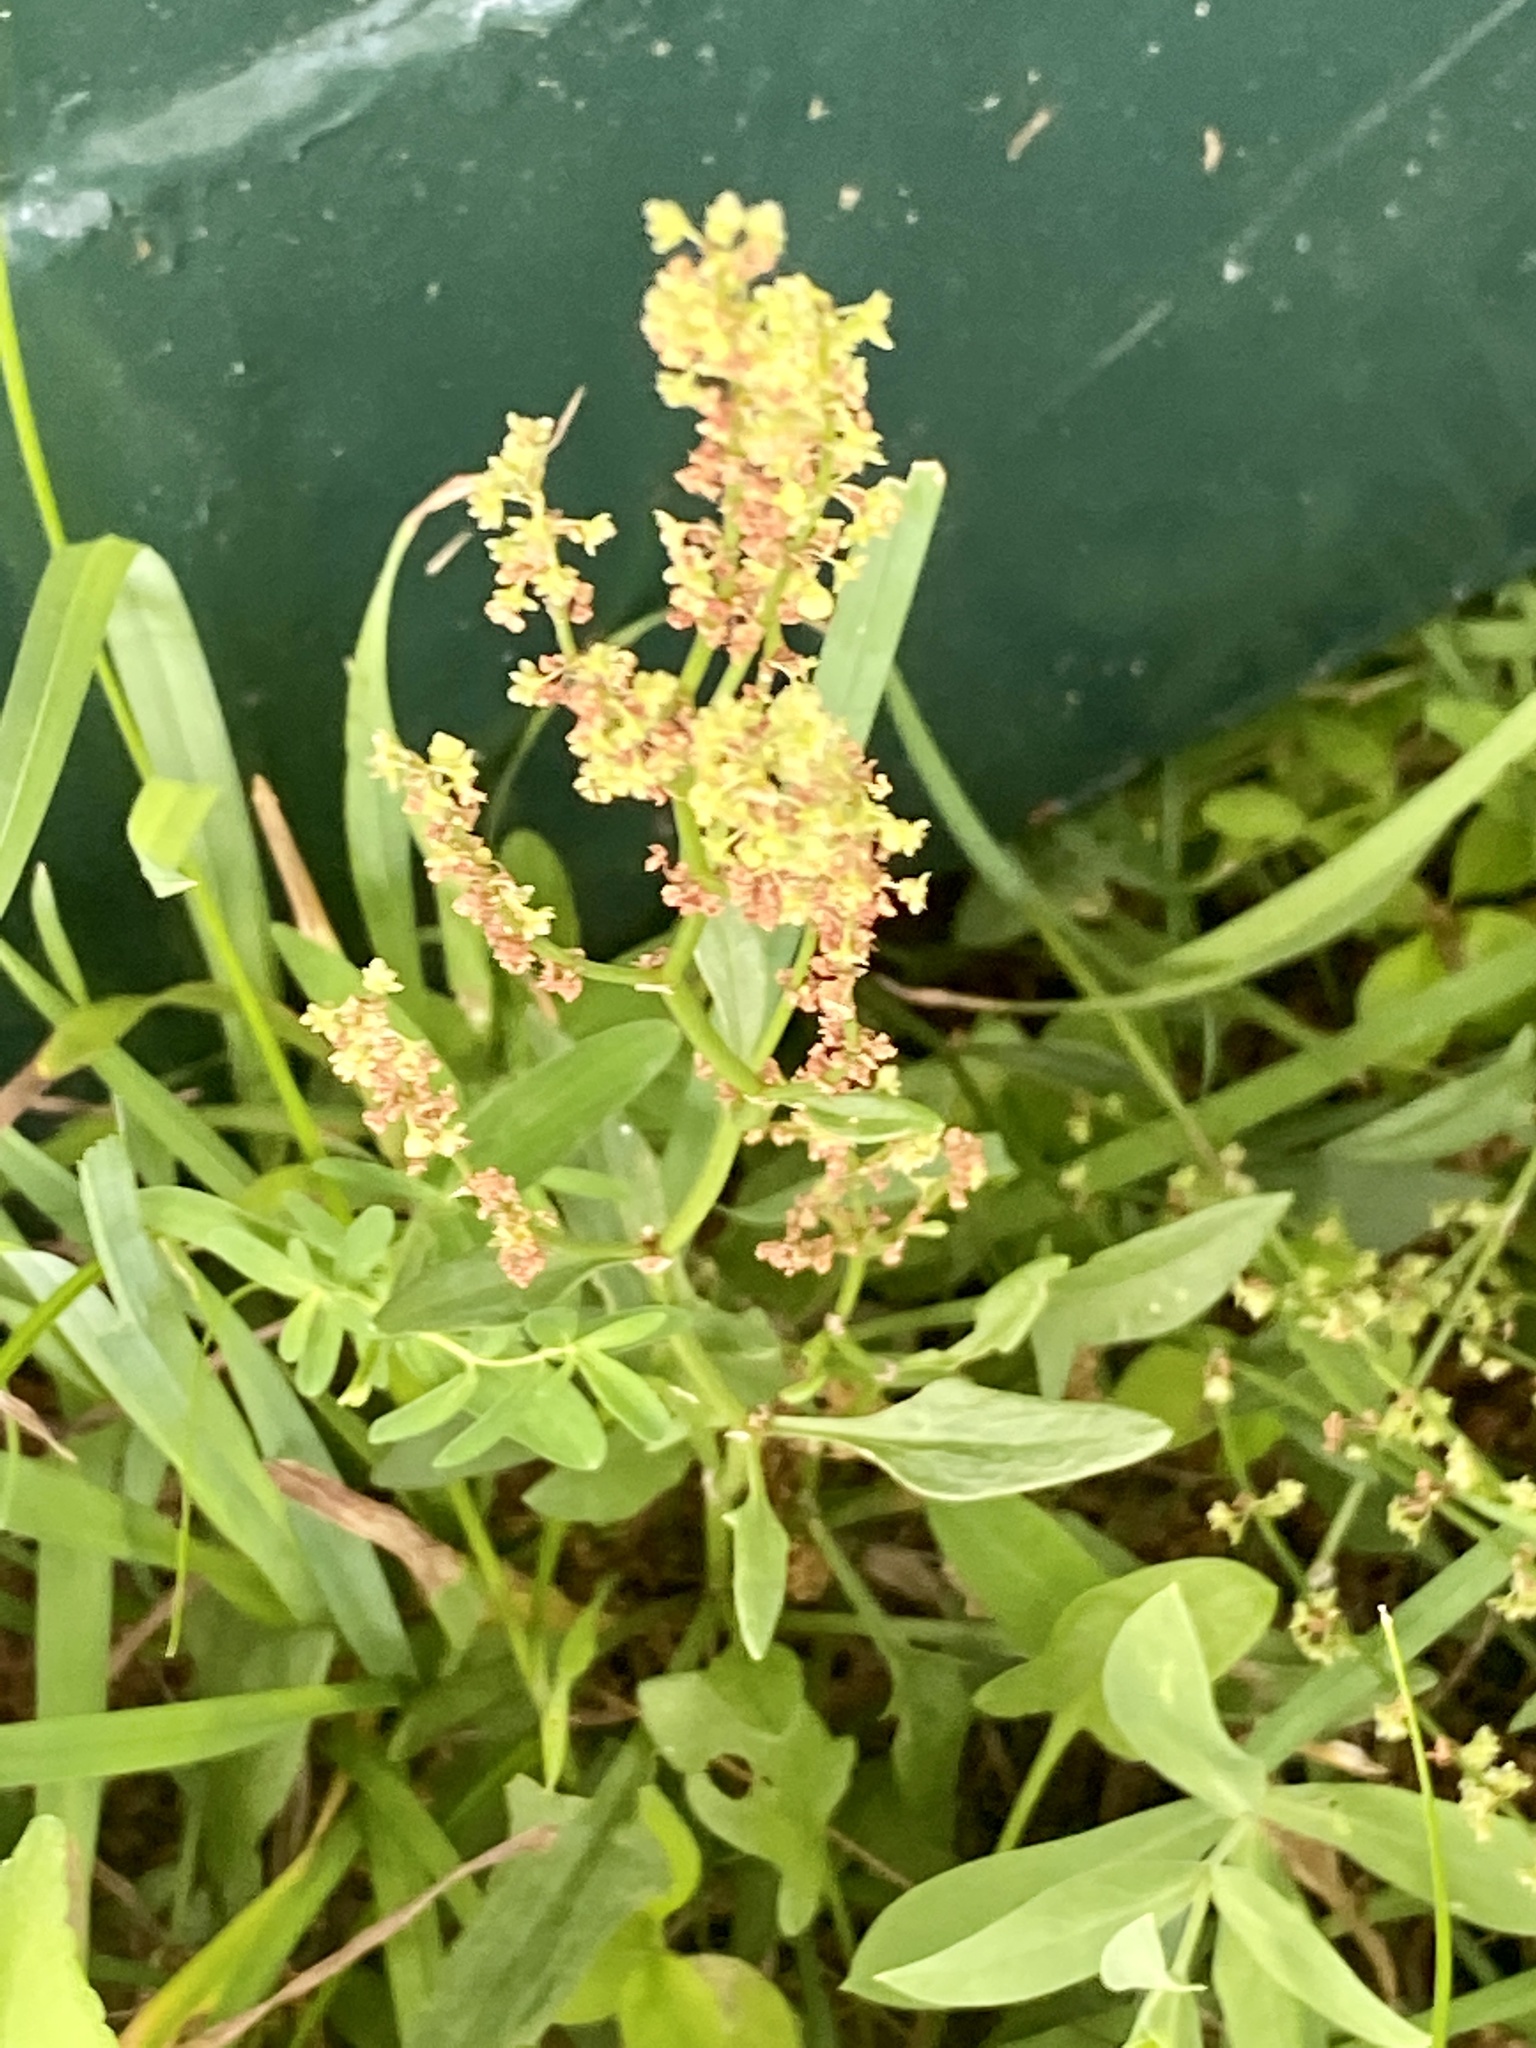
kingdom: Plantae
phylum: Tracheophyta
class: Magnoliopsida
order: Caryophyllales
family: Polygonaceae
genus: Rumex
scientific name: Rumex acetosella
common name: Common sheep sorrel
